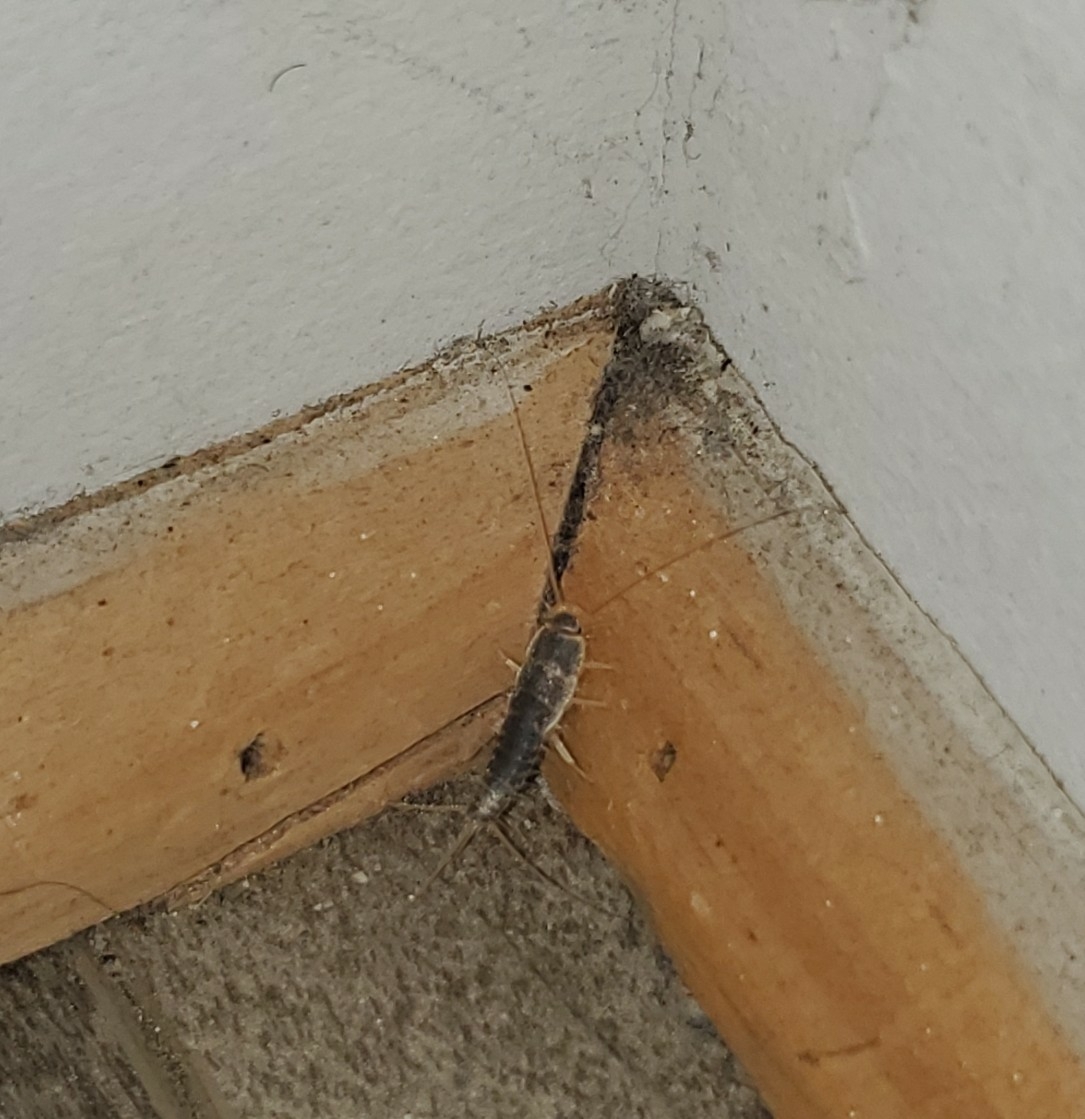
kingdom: Animalia
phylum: Arthropoda
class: Insecta
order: Zygentoma
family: Lepismatidae
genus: Ctenolepisma
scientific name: Ctenolepisma longicaudatum
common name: Silverfish
